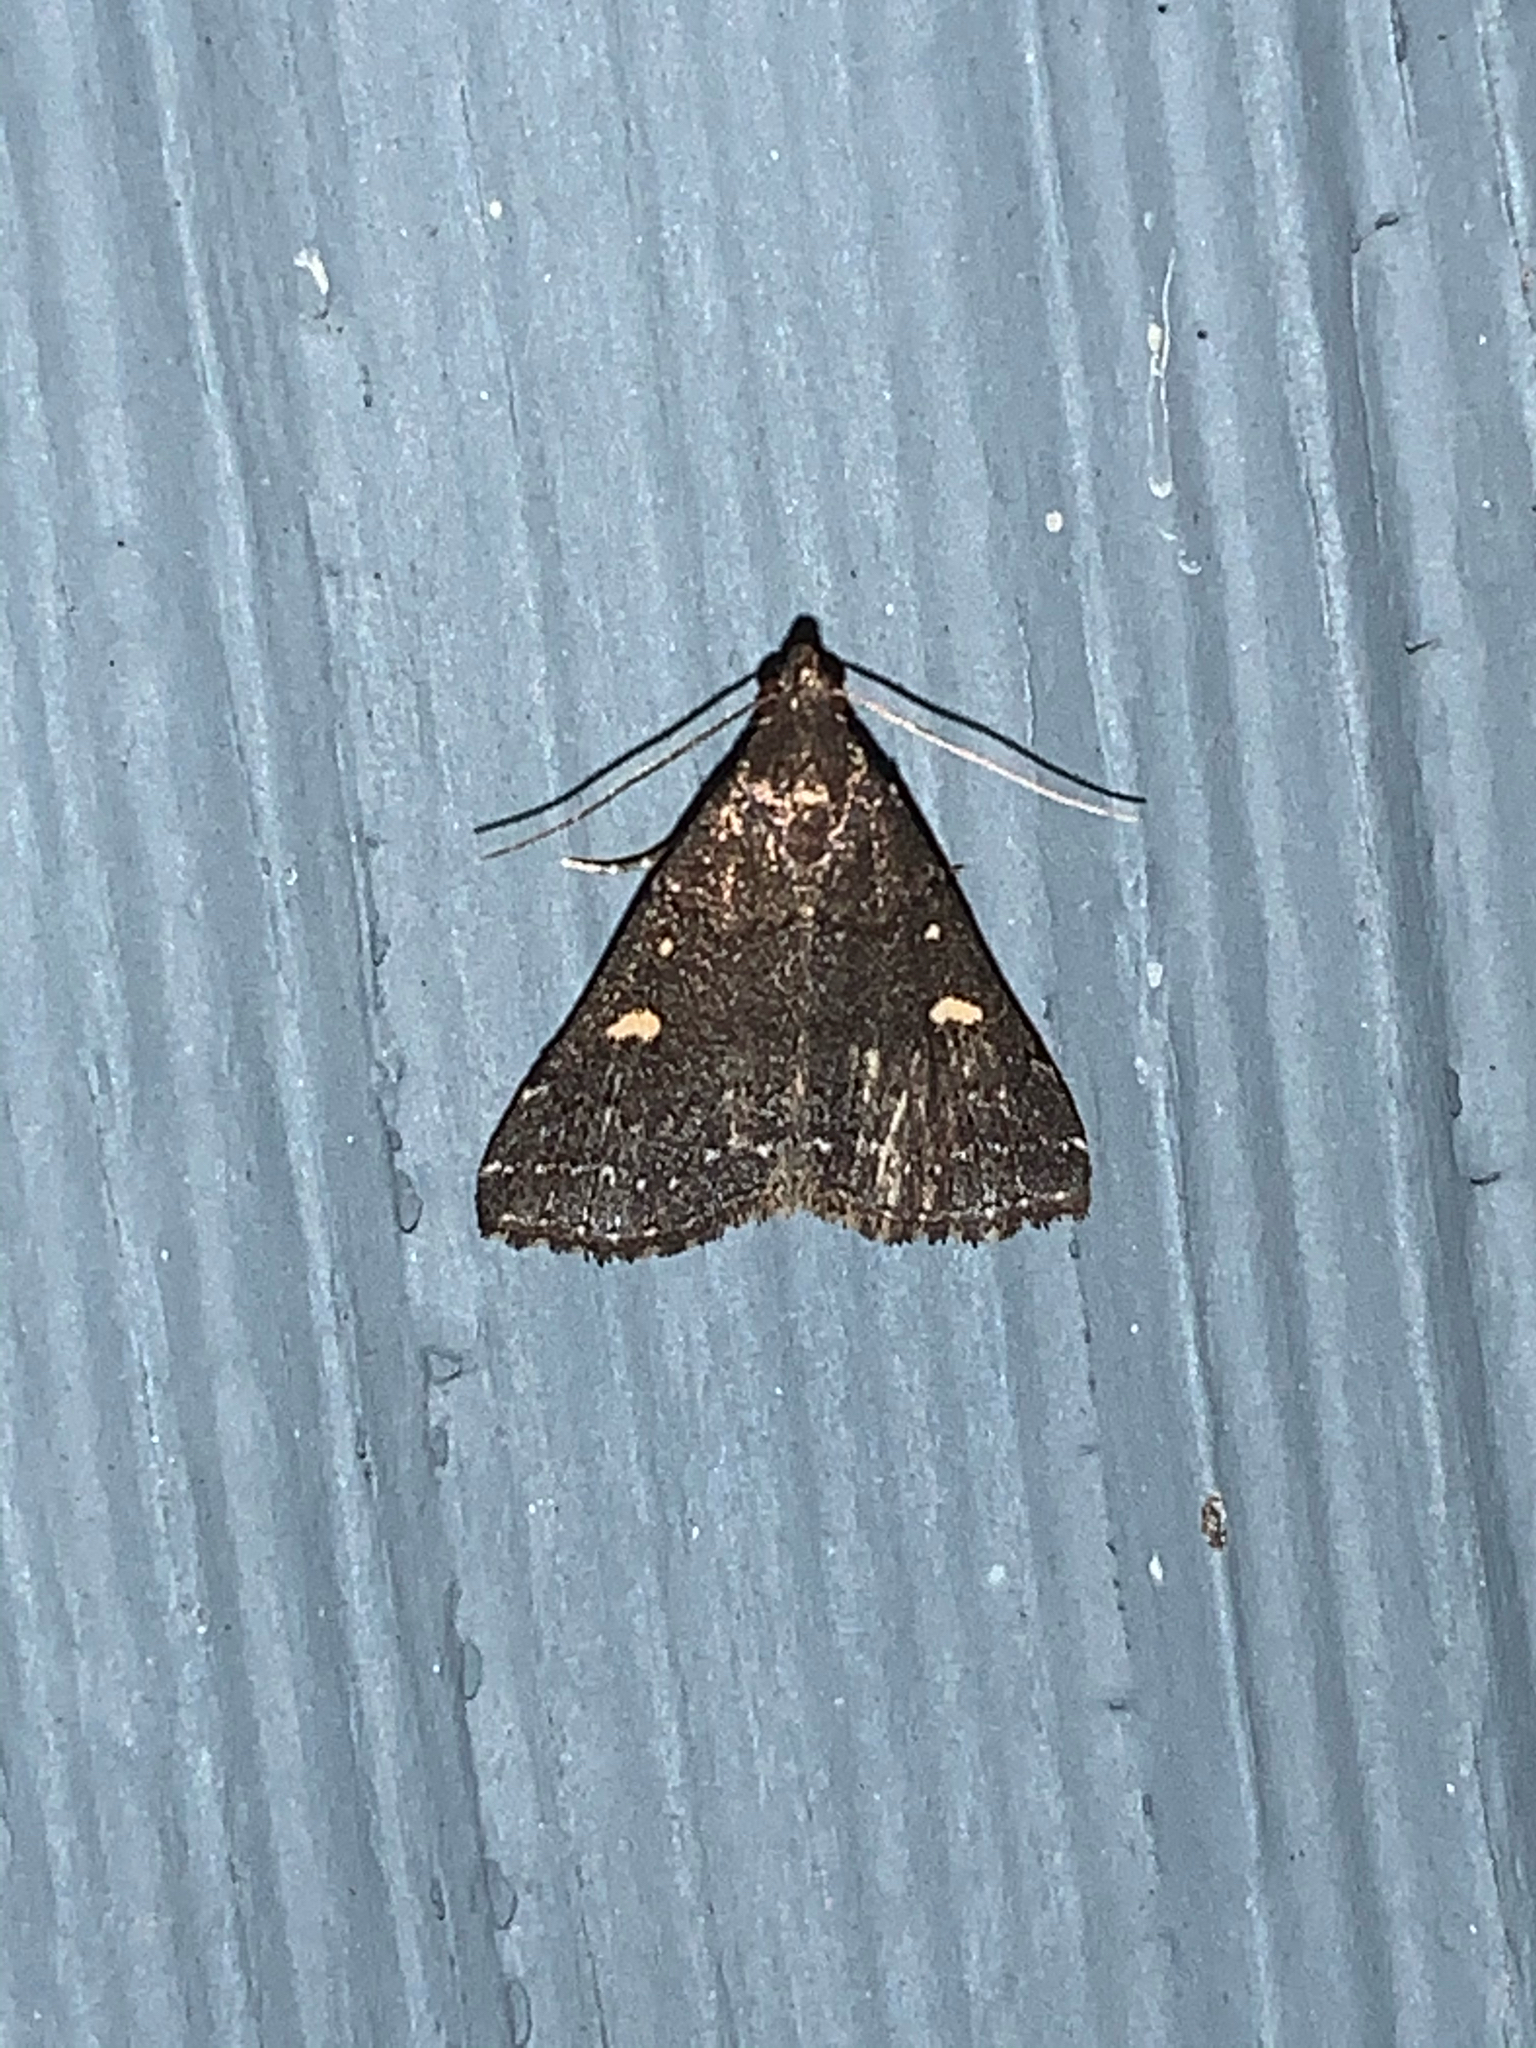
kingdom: Animalia
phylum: Arthropoda
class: Insecta
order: Lepidoptera
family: Erebidae
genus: Tetanolita
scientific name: Tetanolita mynesalis
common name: Smoky tetanolita moth
